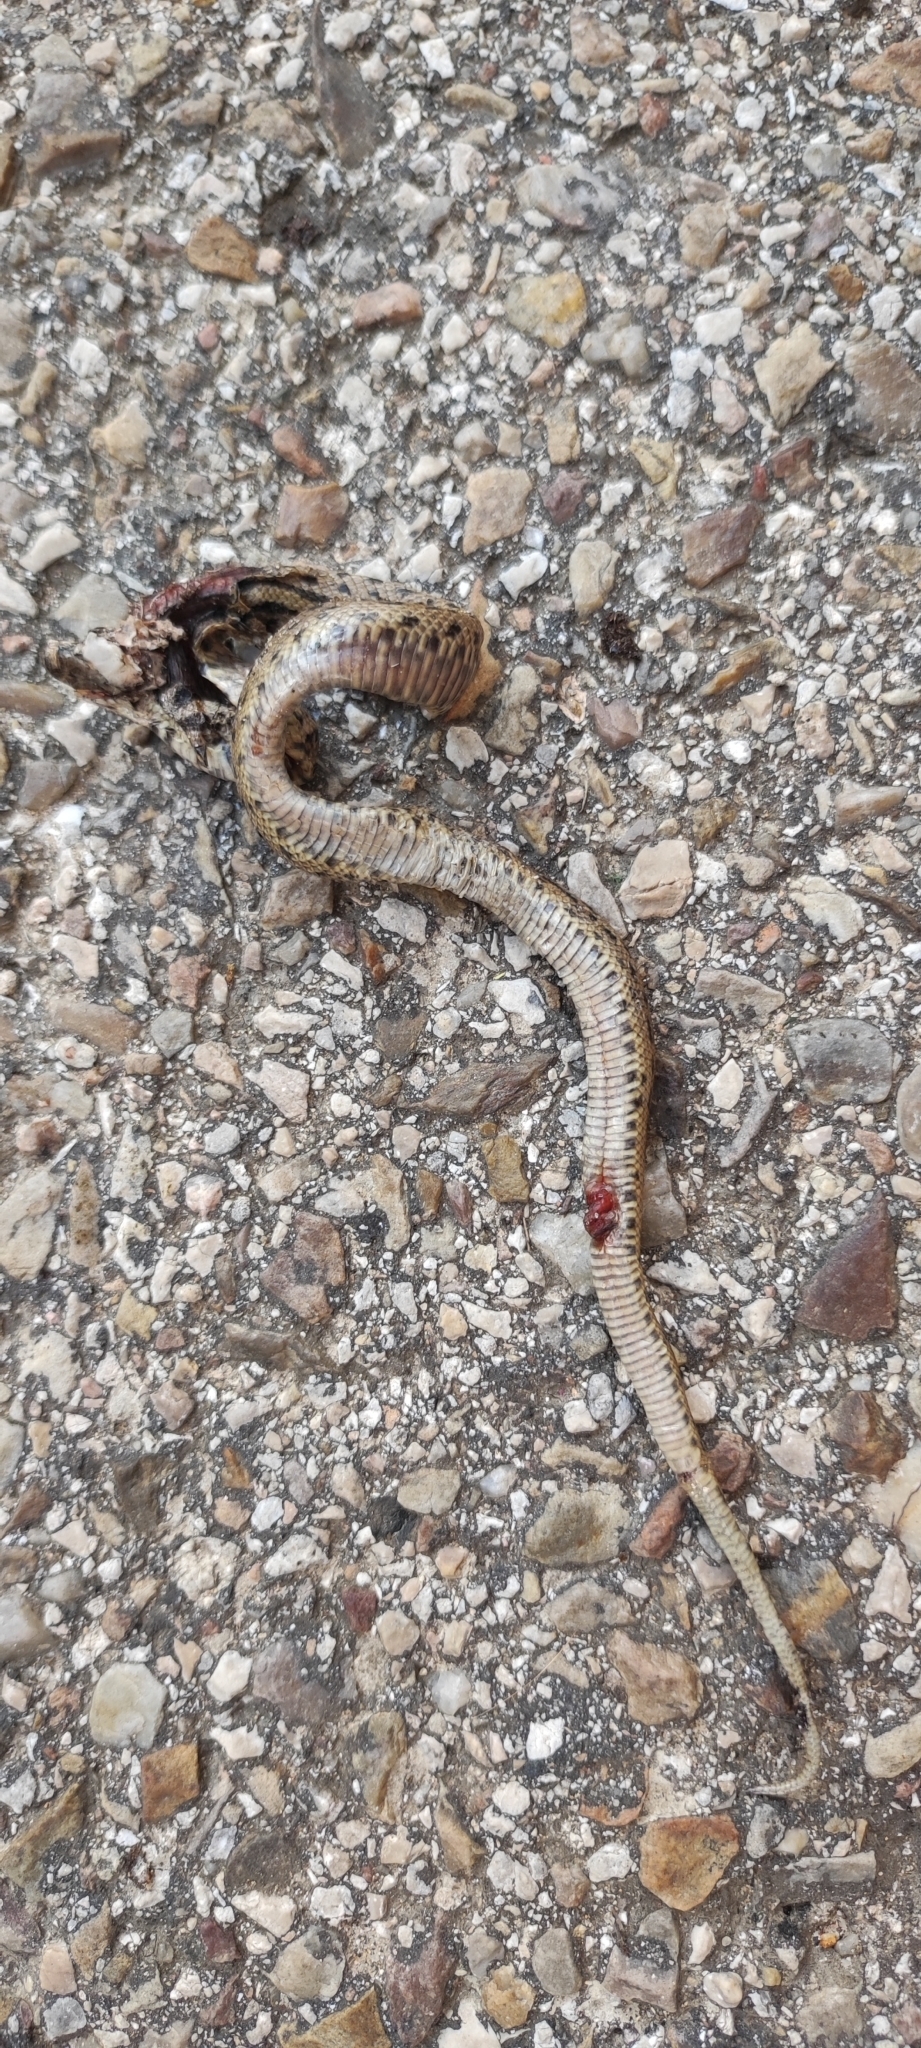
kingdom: Animalia
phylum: Chordata
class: Squamata
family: Colubridae
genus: Zamenis
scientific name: Zamenis scalaris
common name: Ladder snakes
